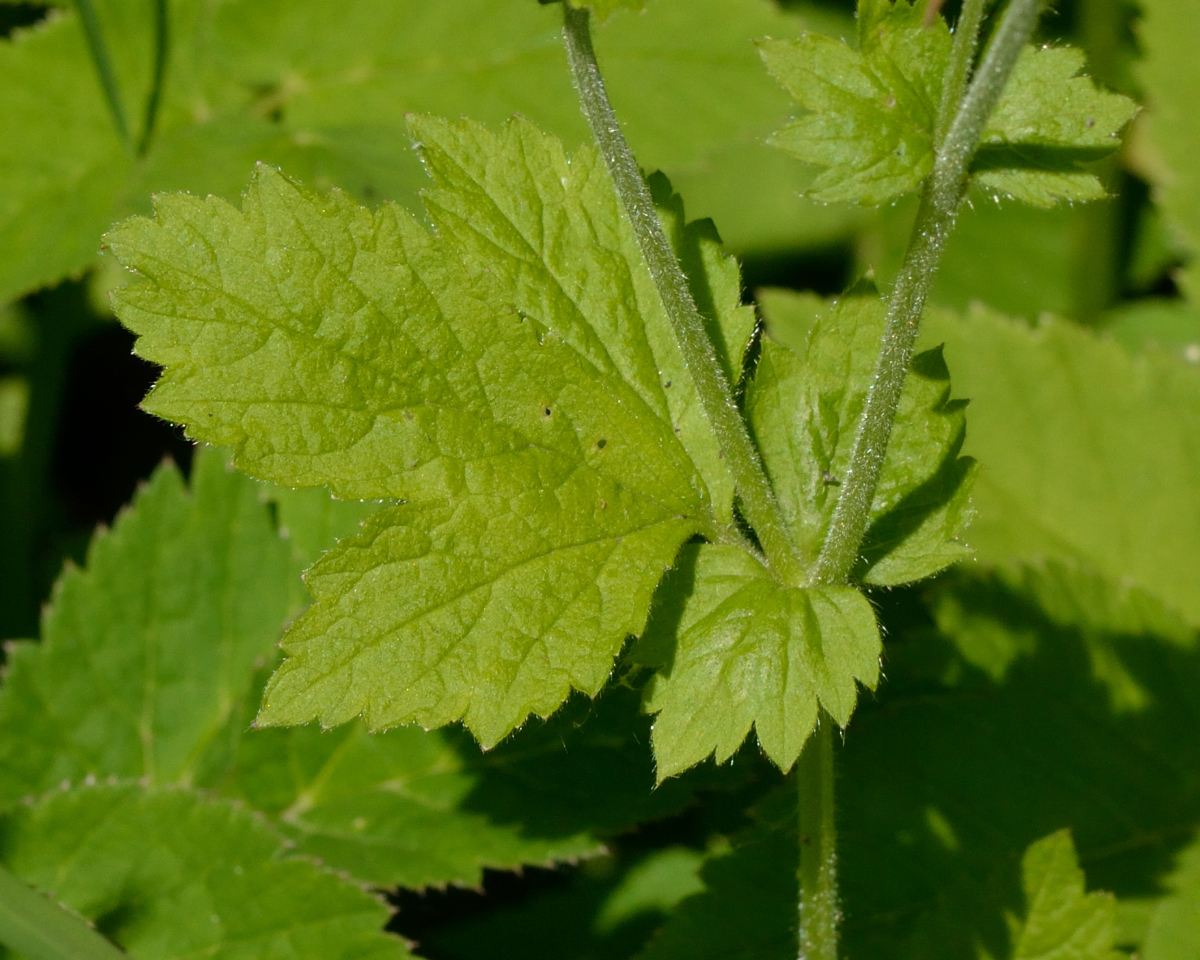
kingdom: Plantae
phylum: Tracheophyta
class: Magnoliopsida
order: Rosales
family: Rosaceae
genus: Geum
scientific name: Geum urbanum
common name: Wood avens
